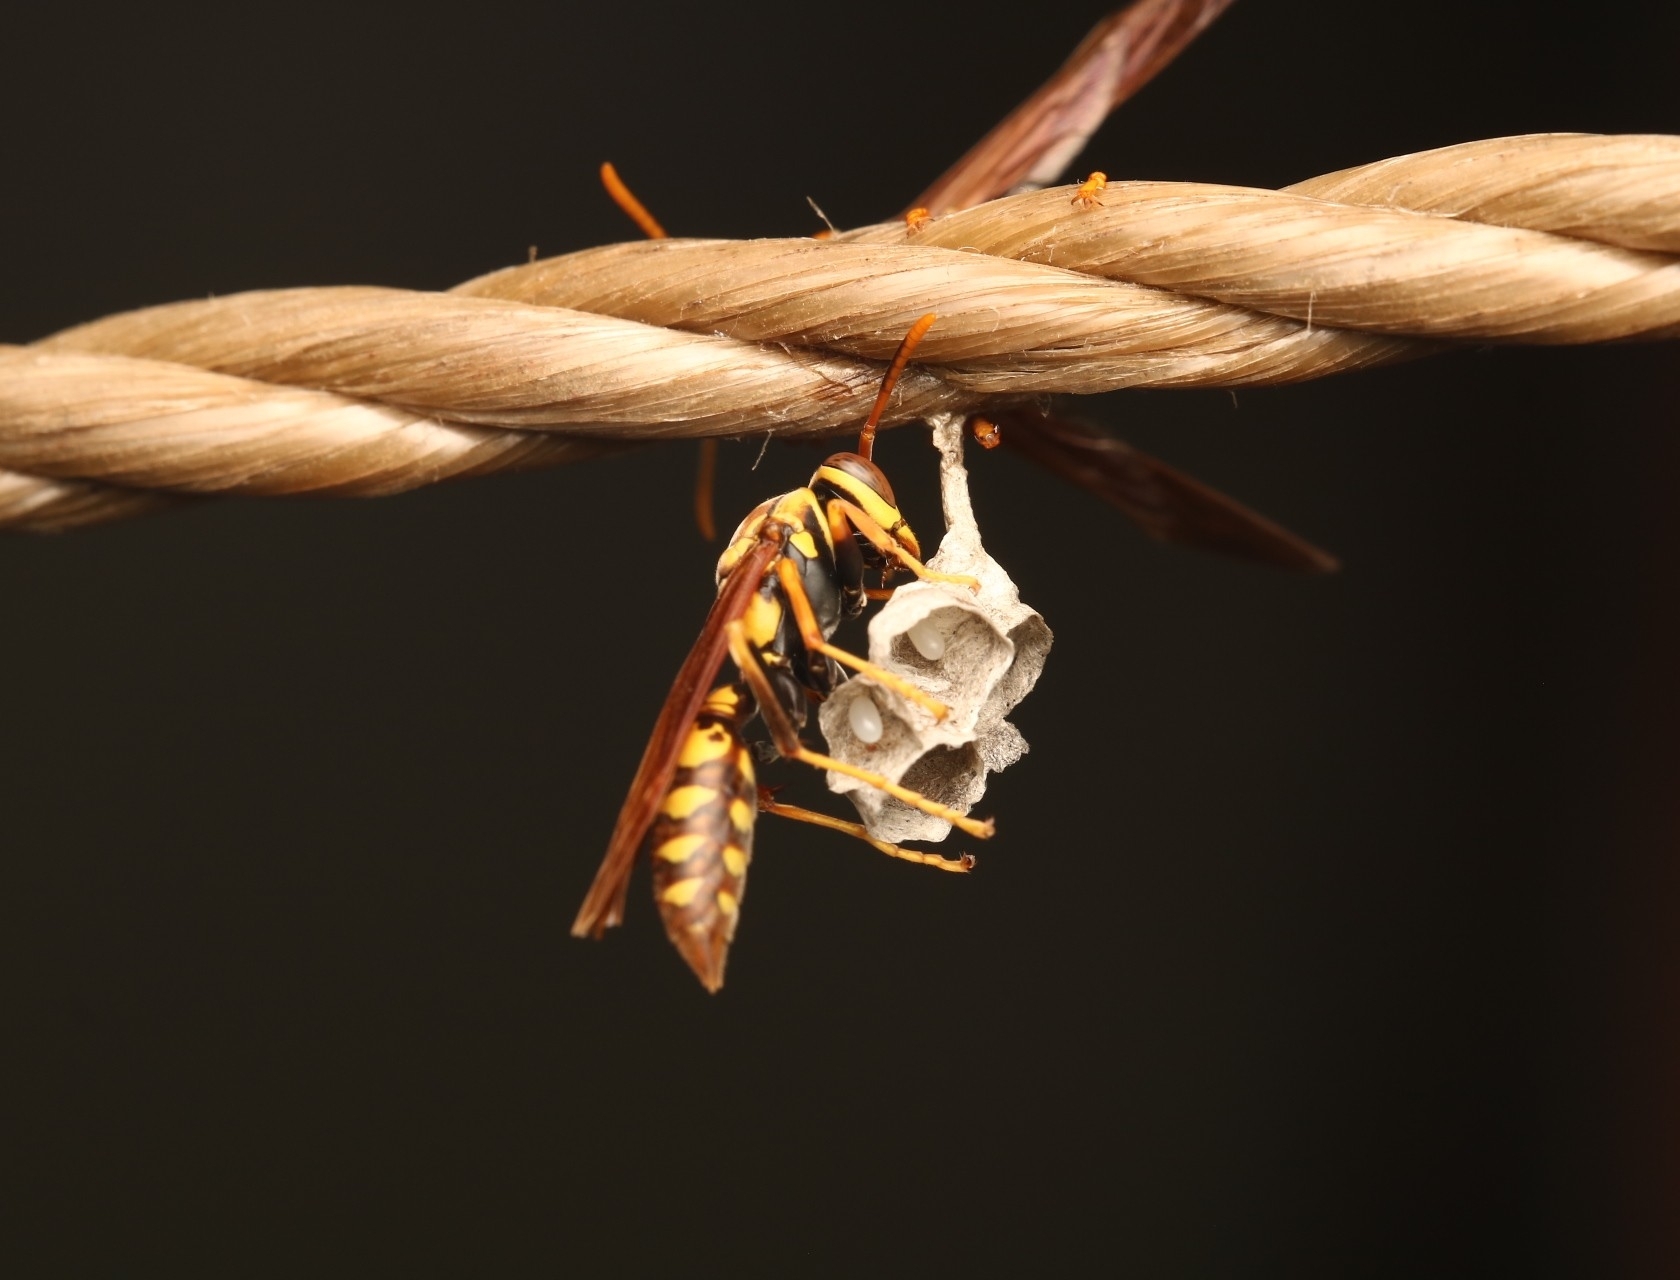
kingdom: Animalia
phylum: Arthropoda
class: Insecta
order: Hymenoptera
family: Eumenidae
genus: Polistes
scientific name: Polistes myersi
